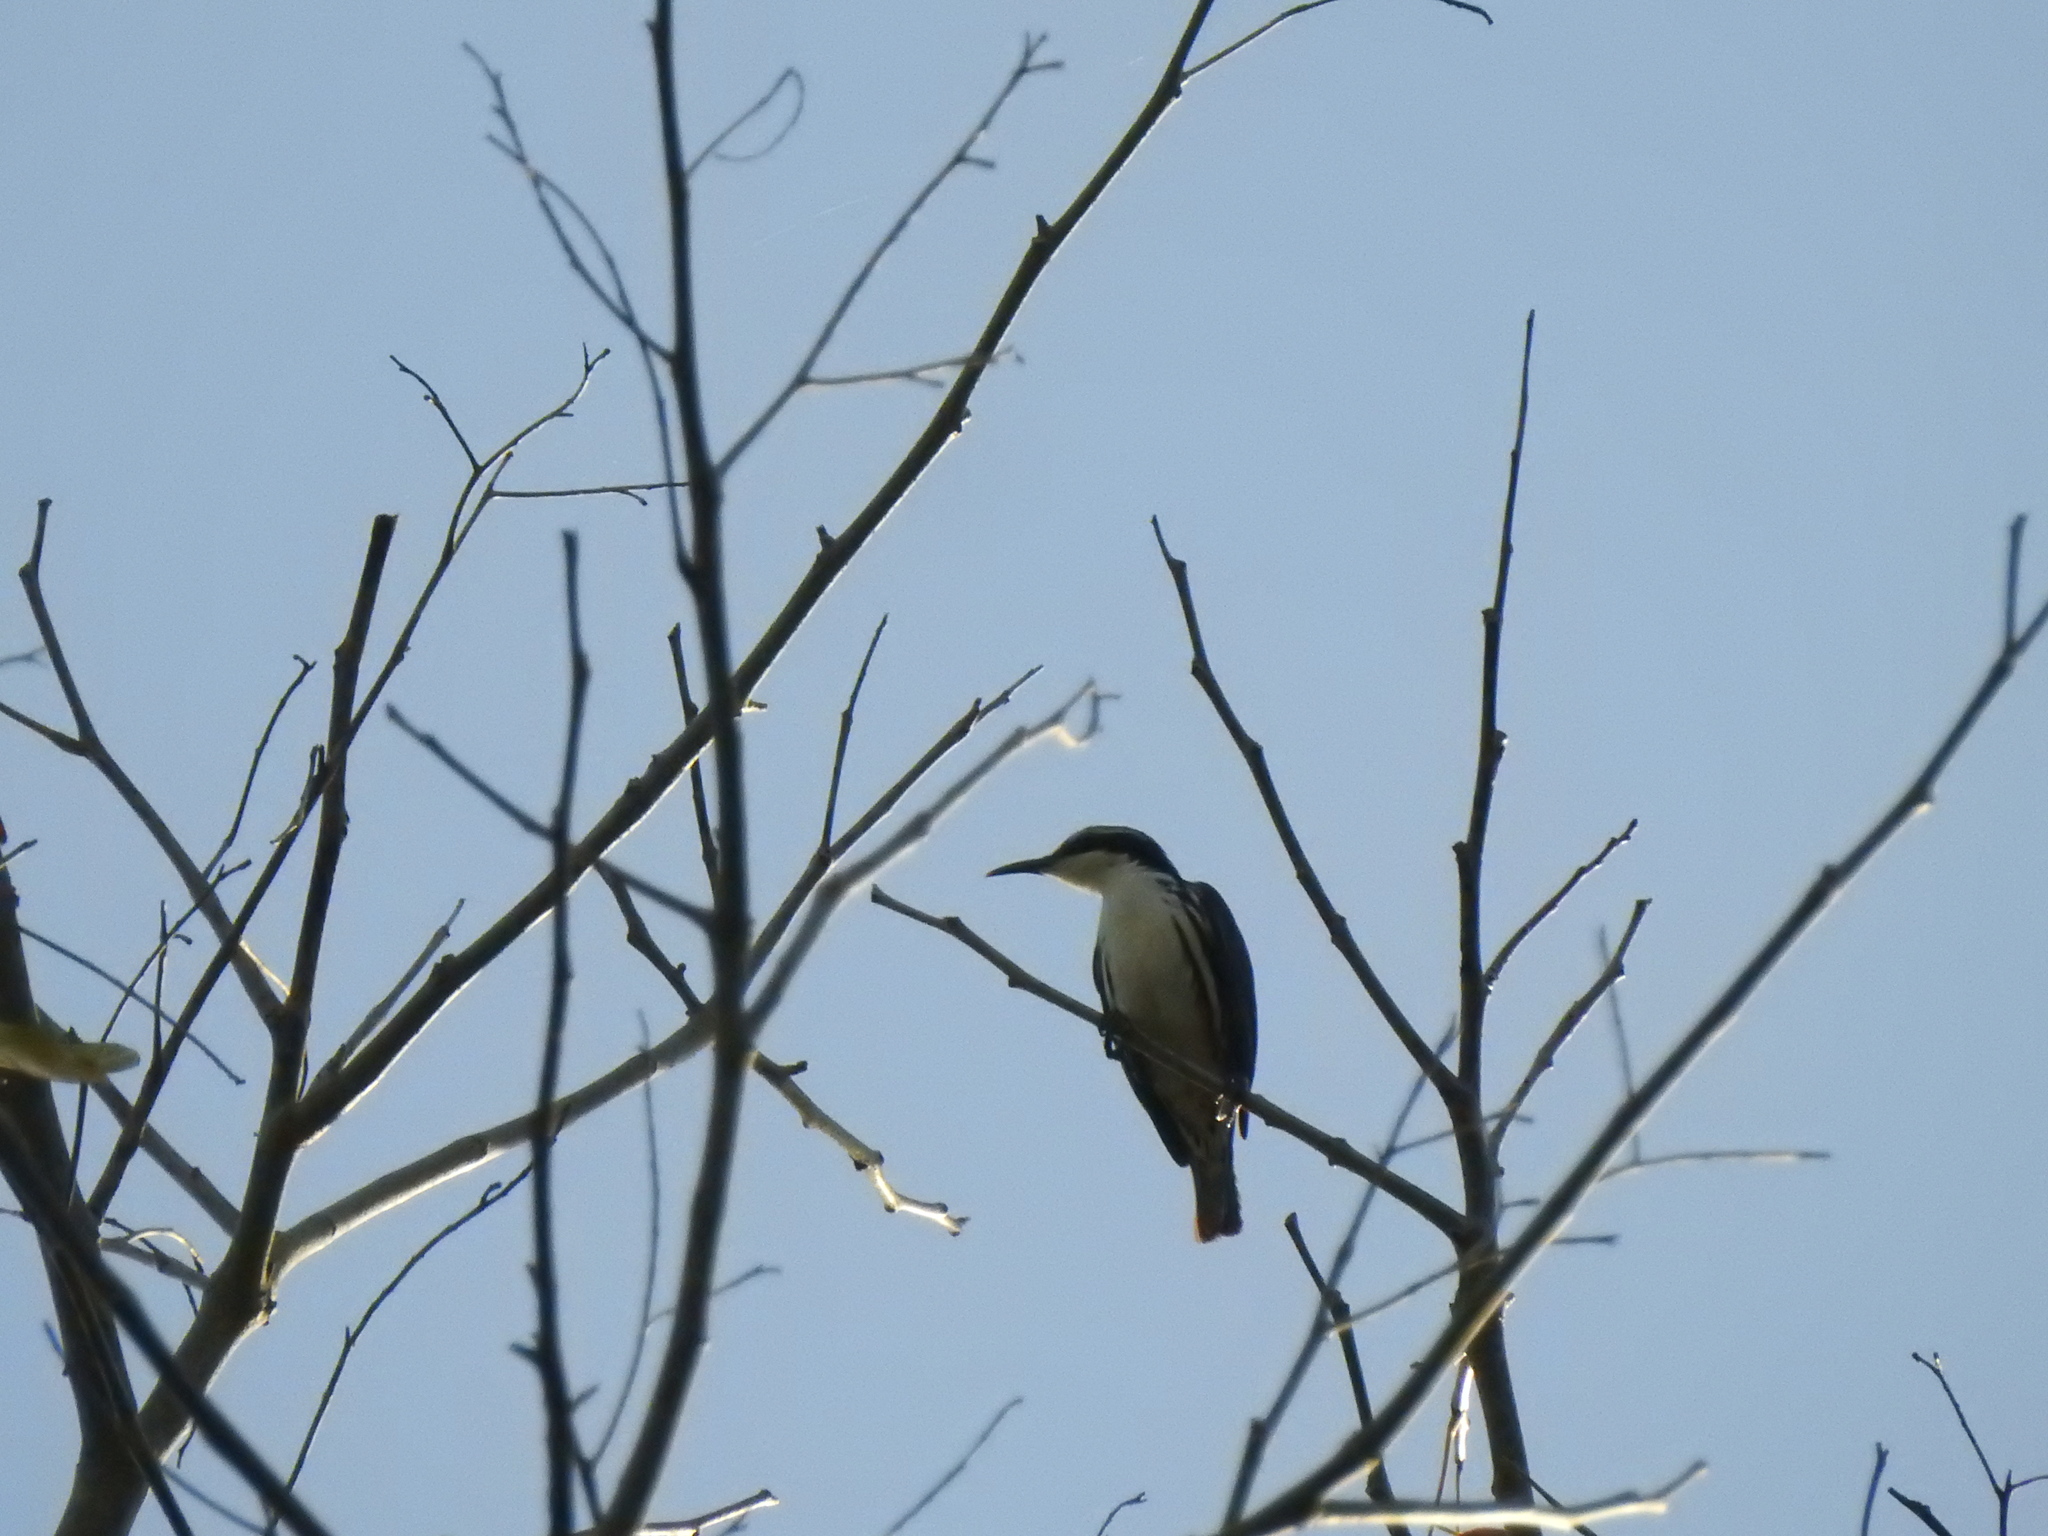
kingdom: Animalia
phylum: Chordata
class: Aves
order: Passeriformes
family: Sturnidae
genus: Rhabdornis
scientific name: Rhabdornis mystacalis
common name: Stripe-headed rhabdornis
